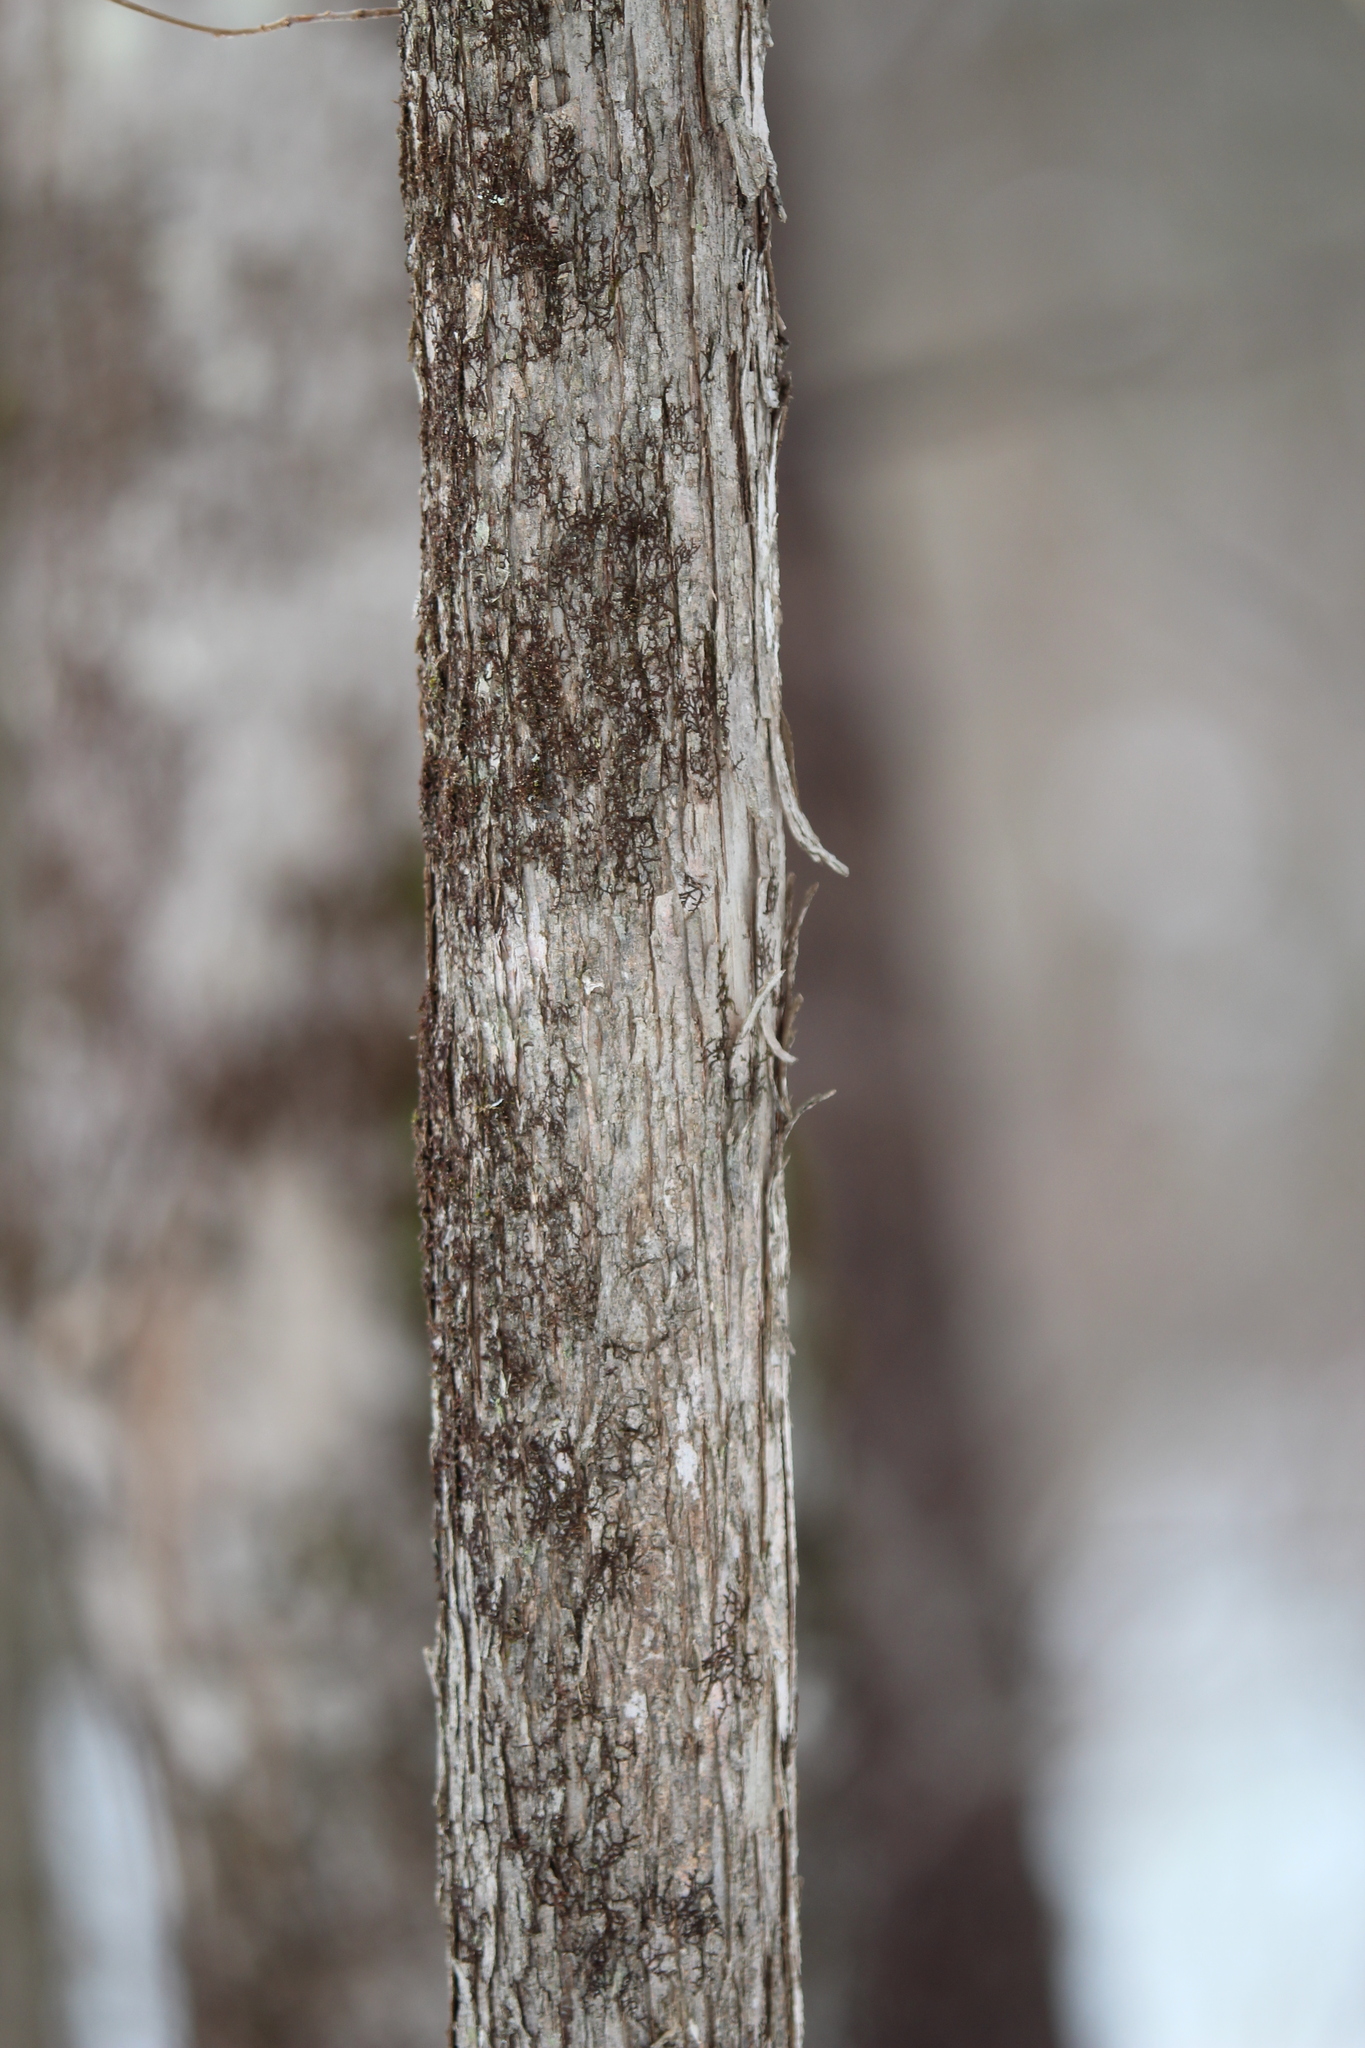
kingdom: Plantae
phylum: Tracheophyta
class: Magnoliopsida
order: Fagales
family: Betulaceae
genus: Ostrya
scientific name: Ostrya virginiana
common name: Ironwood
